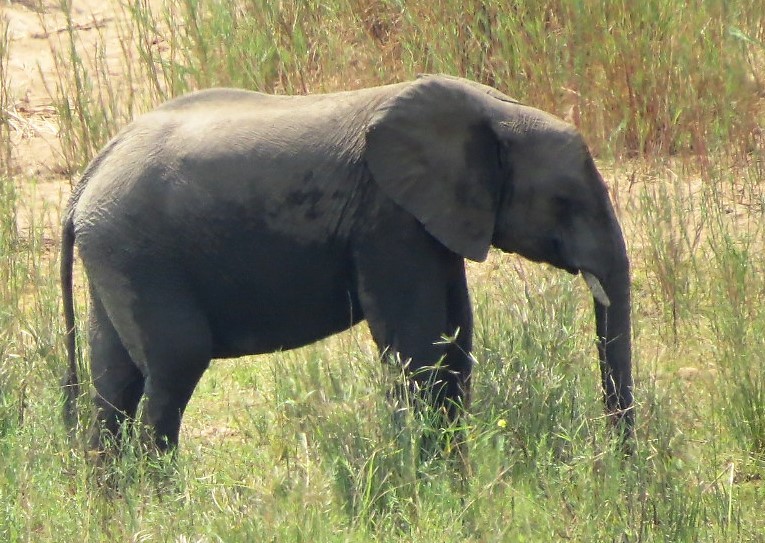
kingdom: Animalia
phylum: Chordata
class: Mammalia
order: Proboscidea
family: Elephantidae
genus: Loxodonta
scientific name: Loxodonta africana
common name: African elephant
